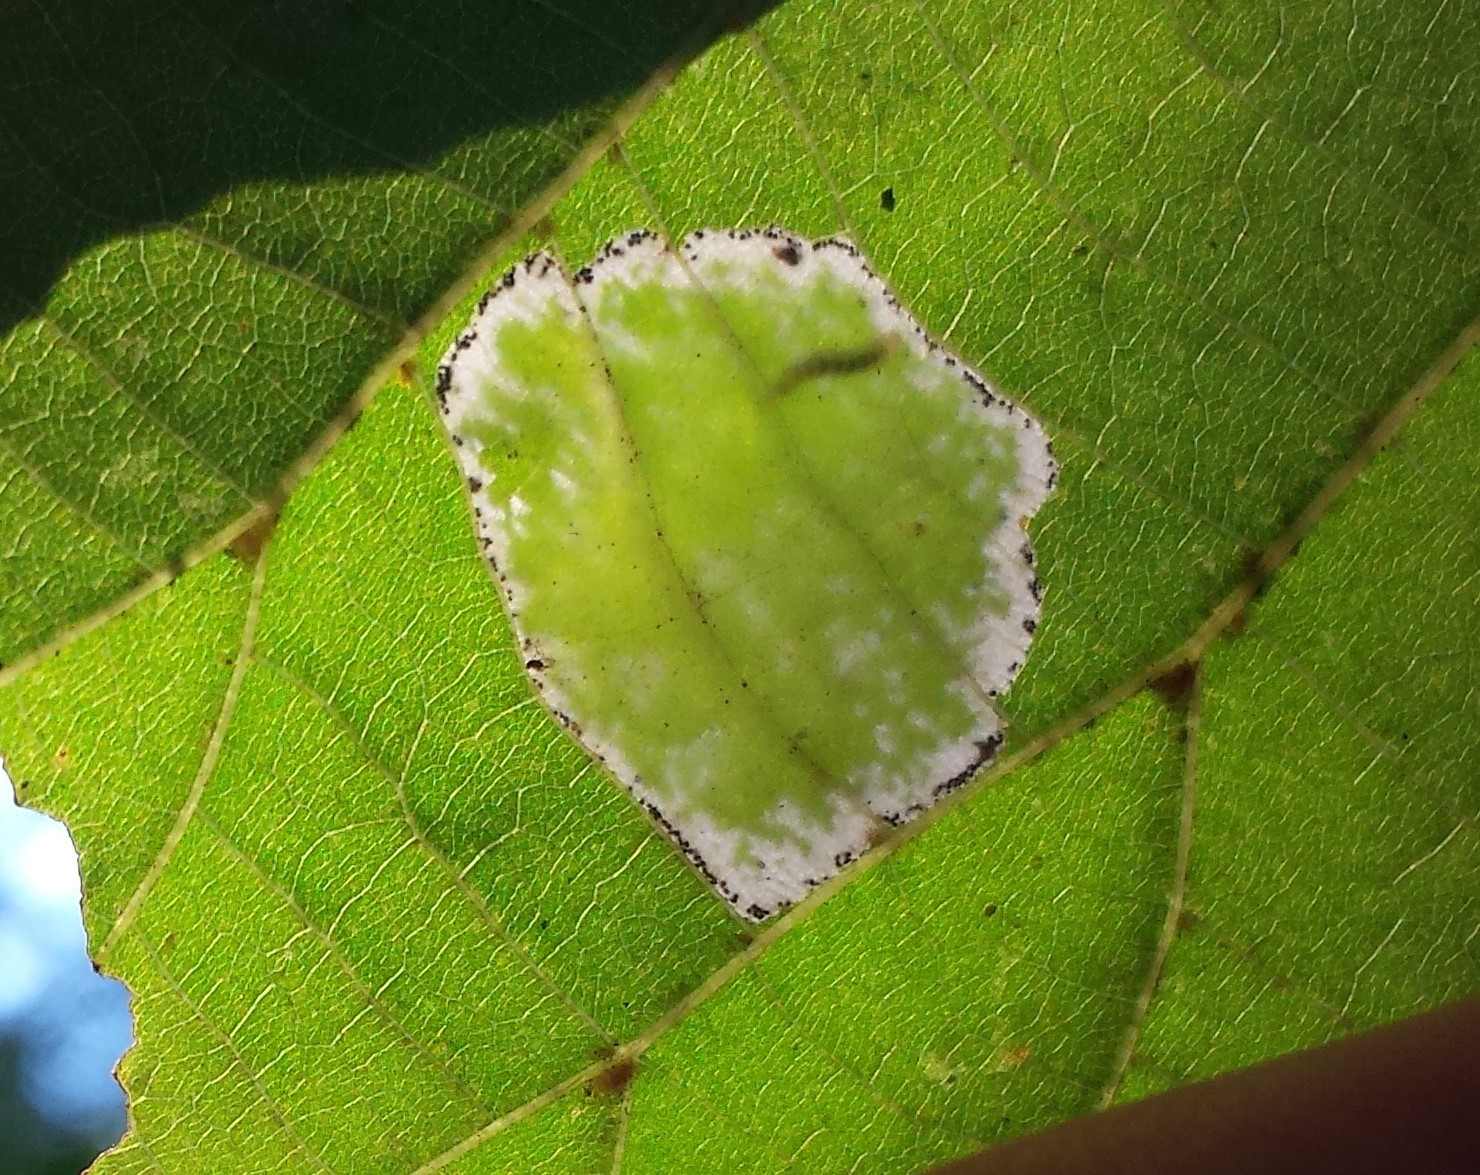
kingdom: Animalia
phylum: Arthropoda
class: Insecta
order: Lepidoptera
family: Gracillariidae
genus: Phyllonorycter
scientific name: Phyllonorycter lucetiella
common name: Basswood miner moth
